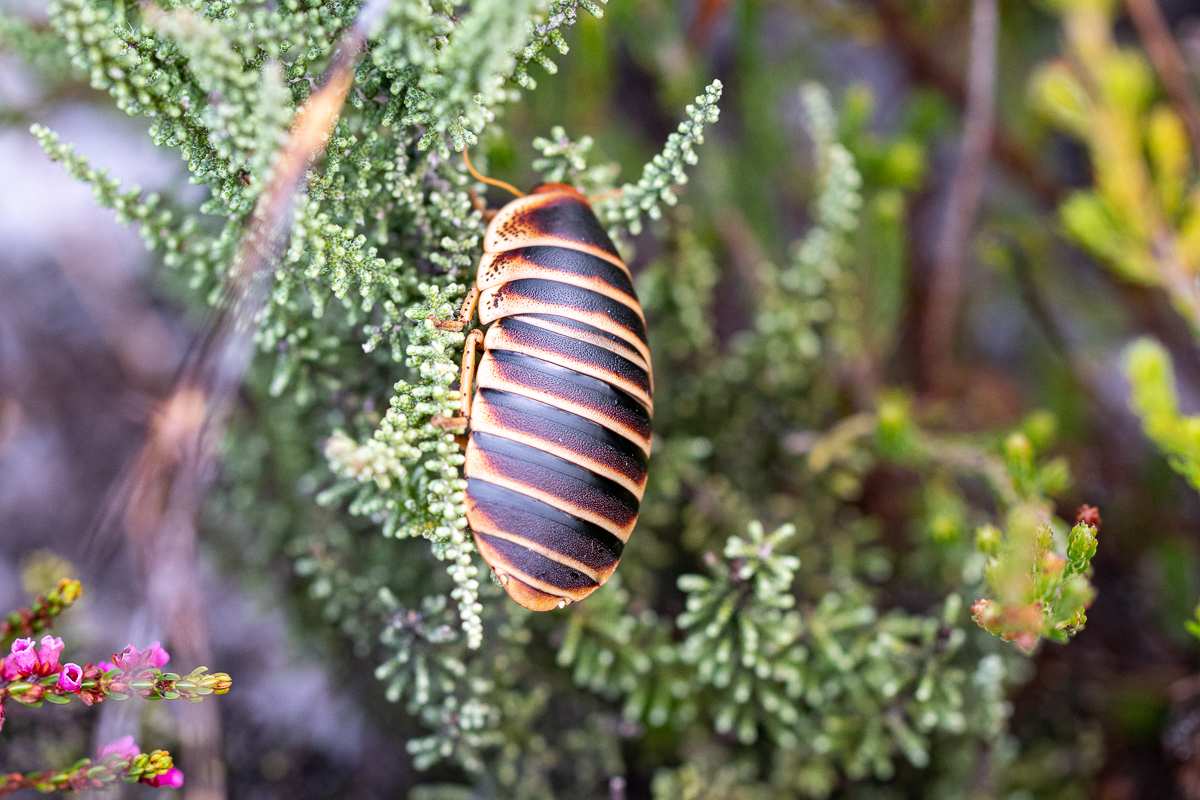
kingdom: Animalia
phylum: Arthropoda
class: Insecta
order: Blattodea
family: Blaberidae
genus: Aptera
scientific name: Aptera fusca
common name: Cape mountain cockroach
